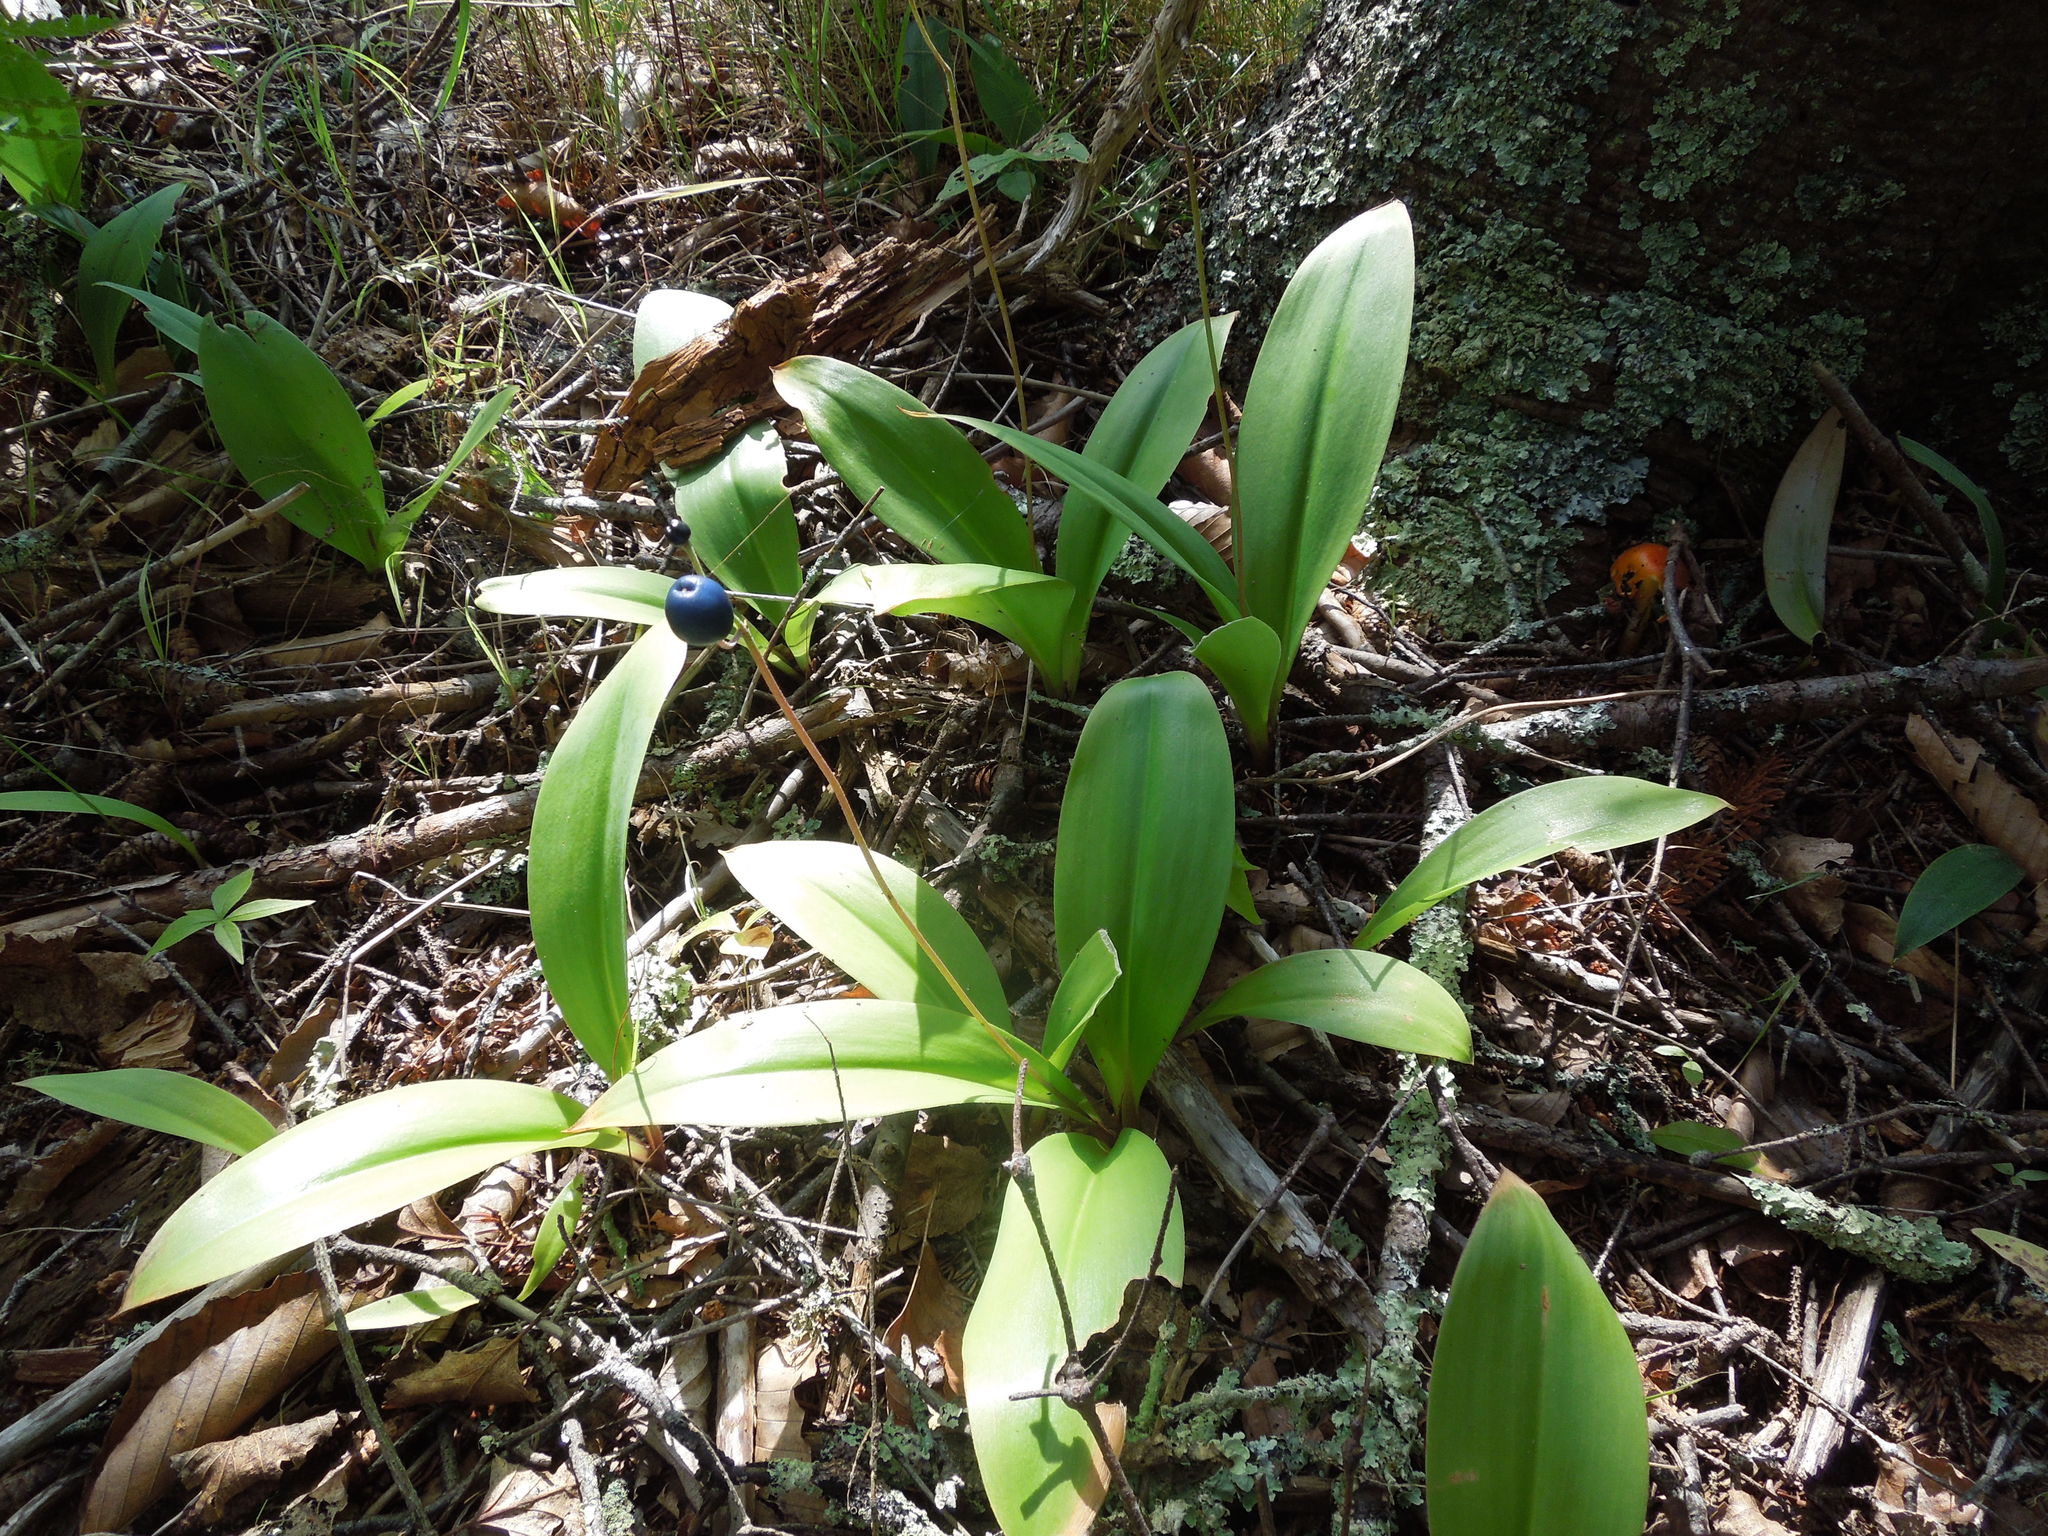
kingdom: Plantae
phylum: Tracheophyta
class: Liliopsida
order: Liliales
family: Liliaceae
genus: Clintonia
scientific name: Clintonia borealis
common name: Yellow clintonia
